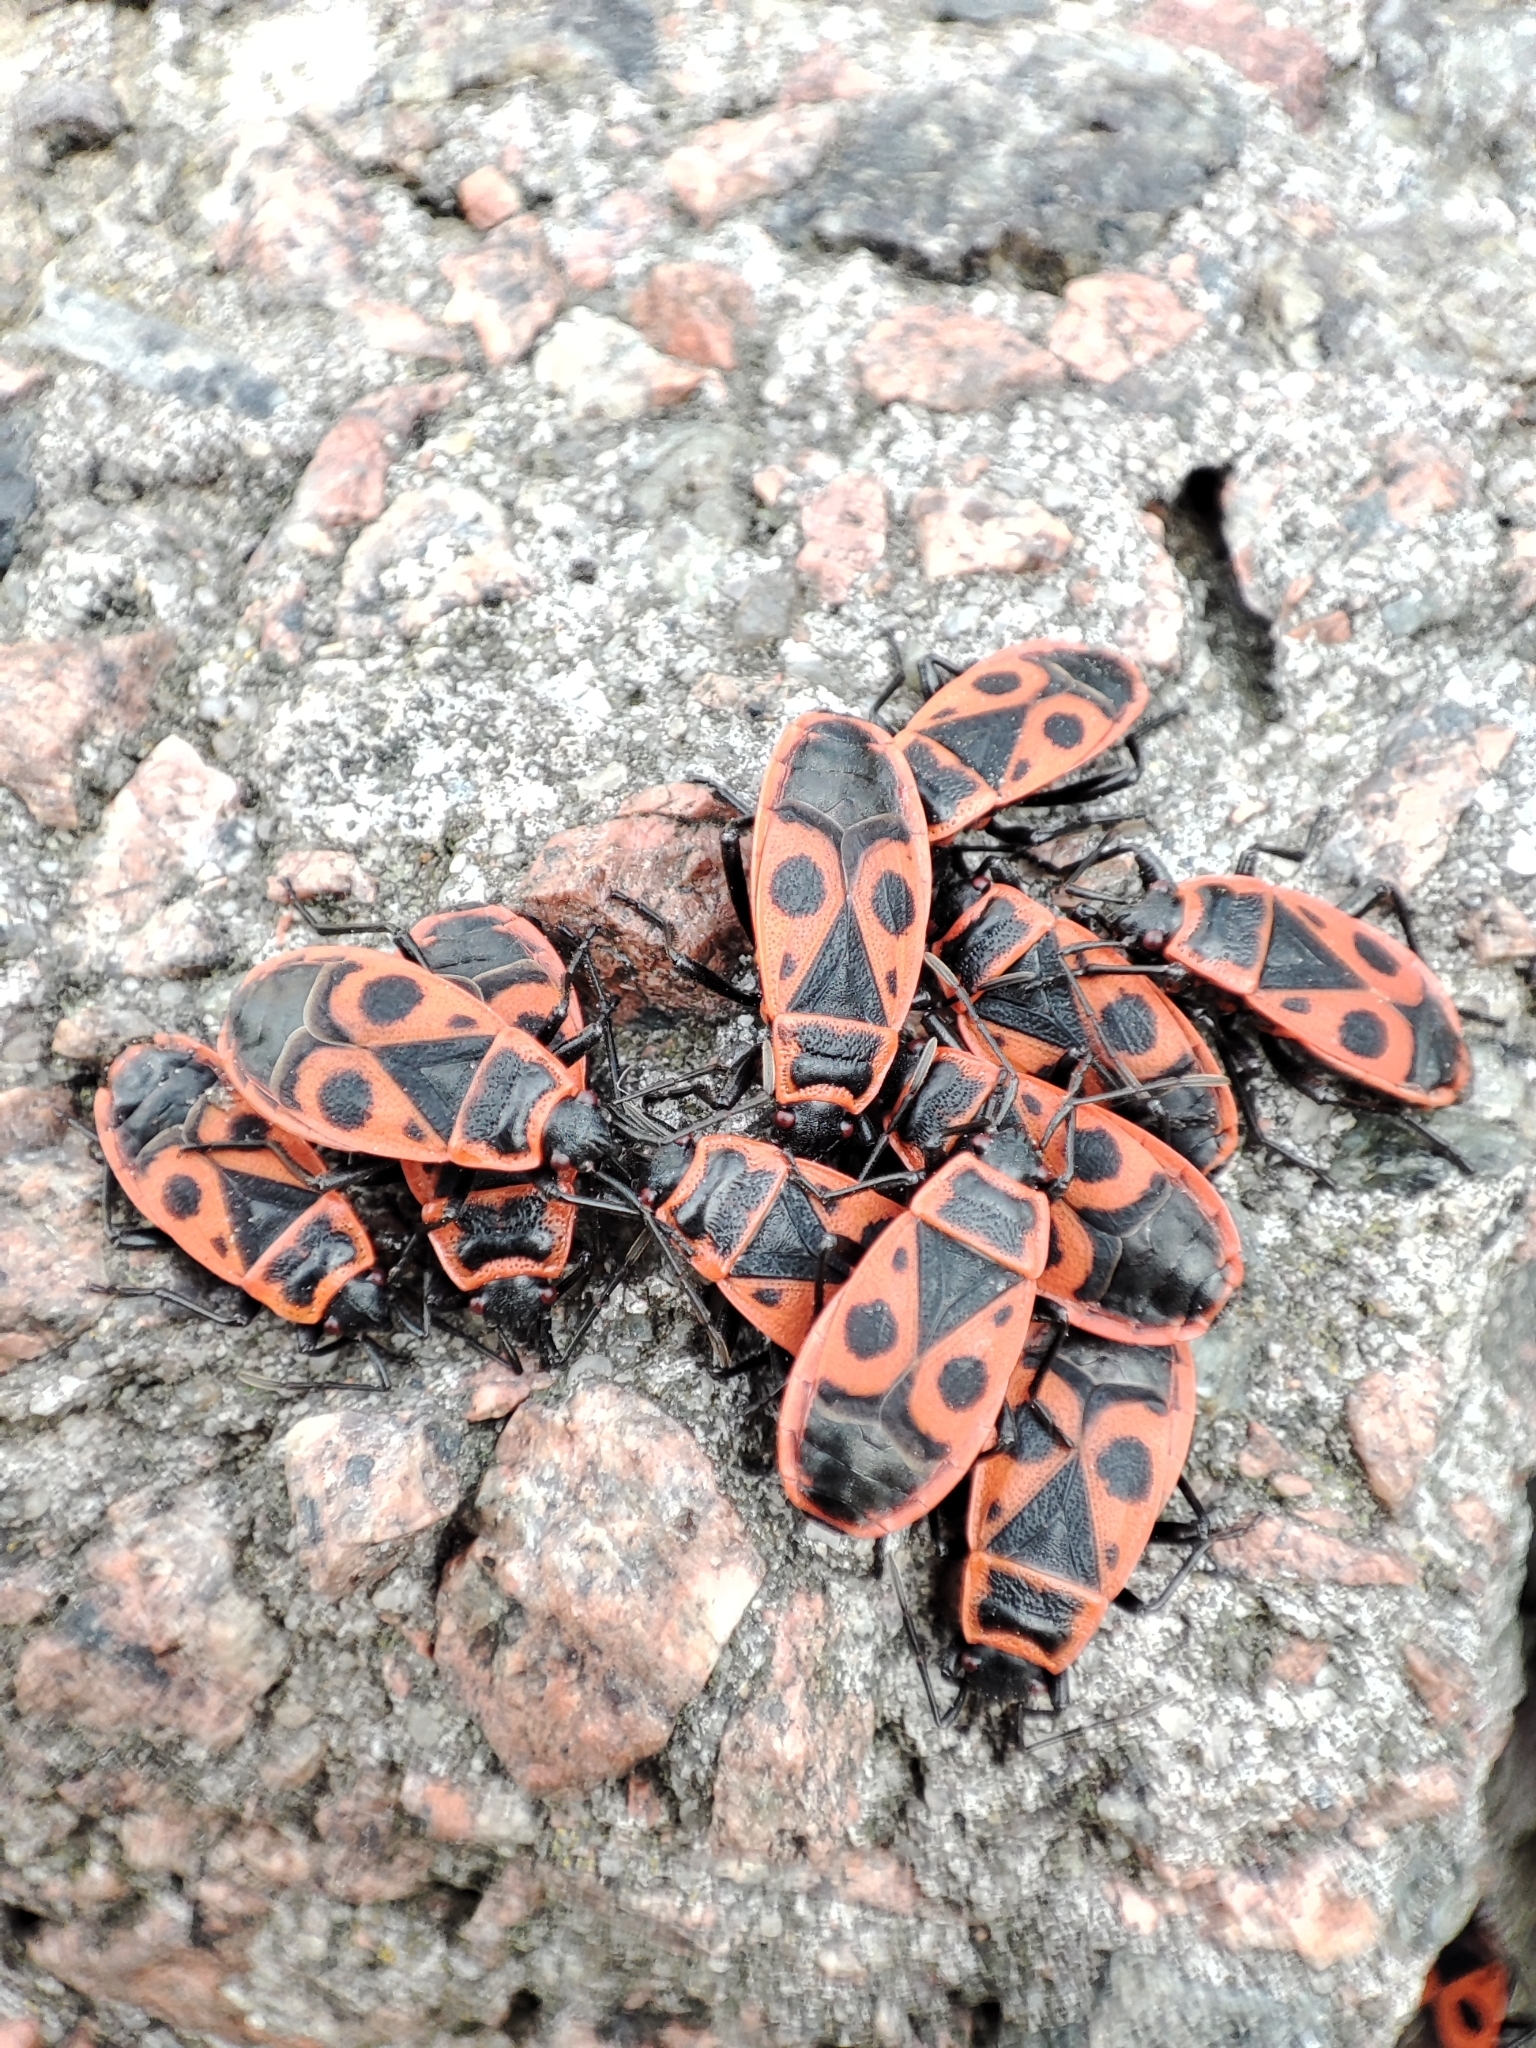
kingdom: Animalia
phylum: Arthropoda
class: Insecta
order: Hemiptera
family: Pyrrhocoridae
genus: Pyrrhocoris
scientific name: Pyrrhocoris apterus
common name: Firebug
